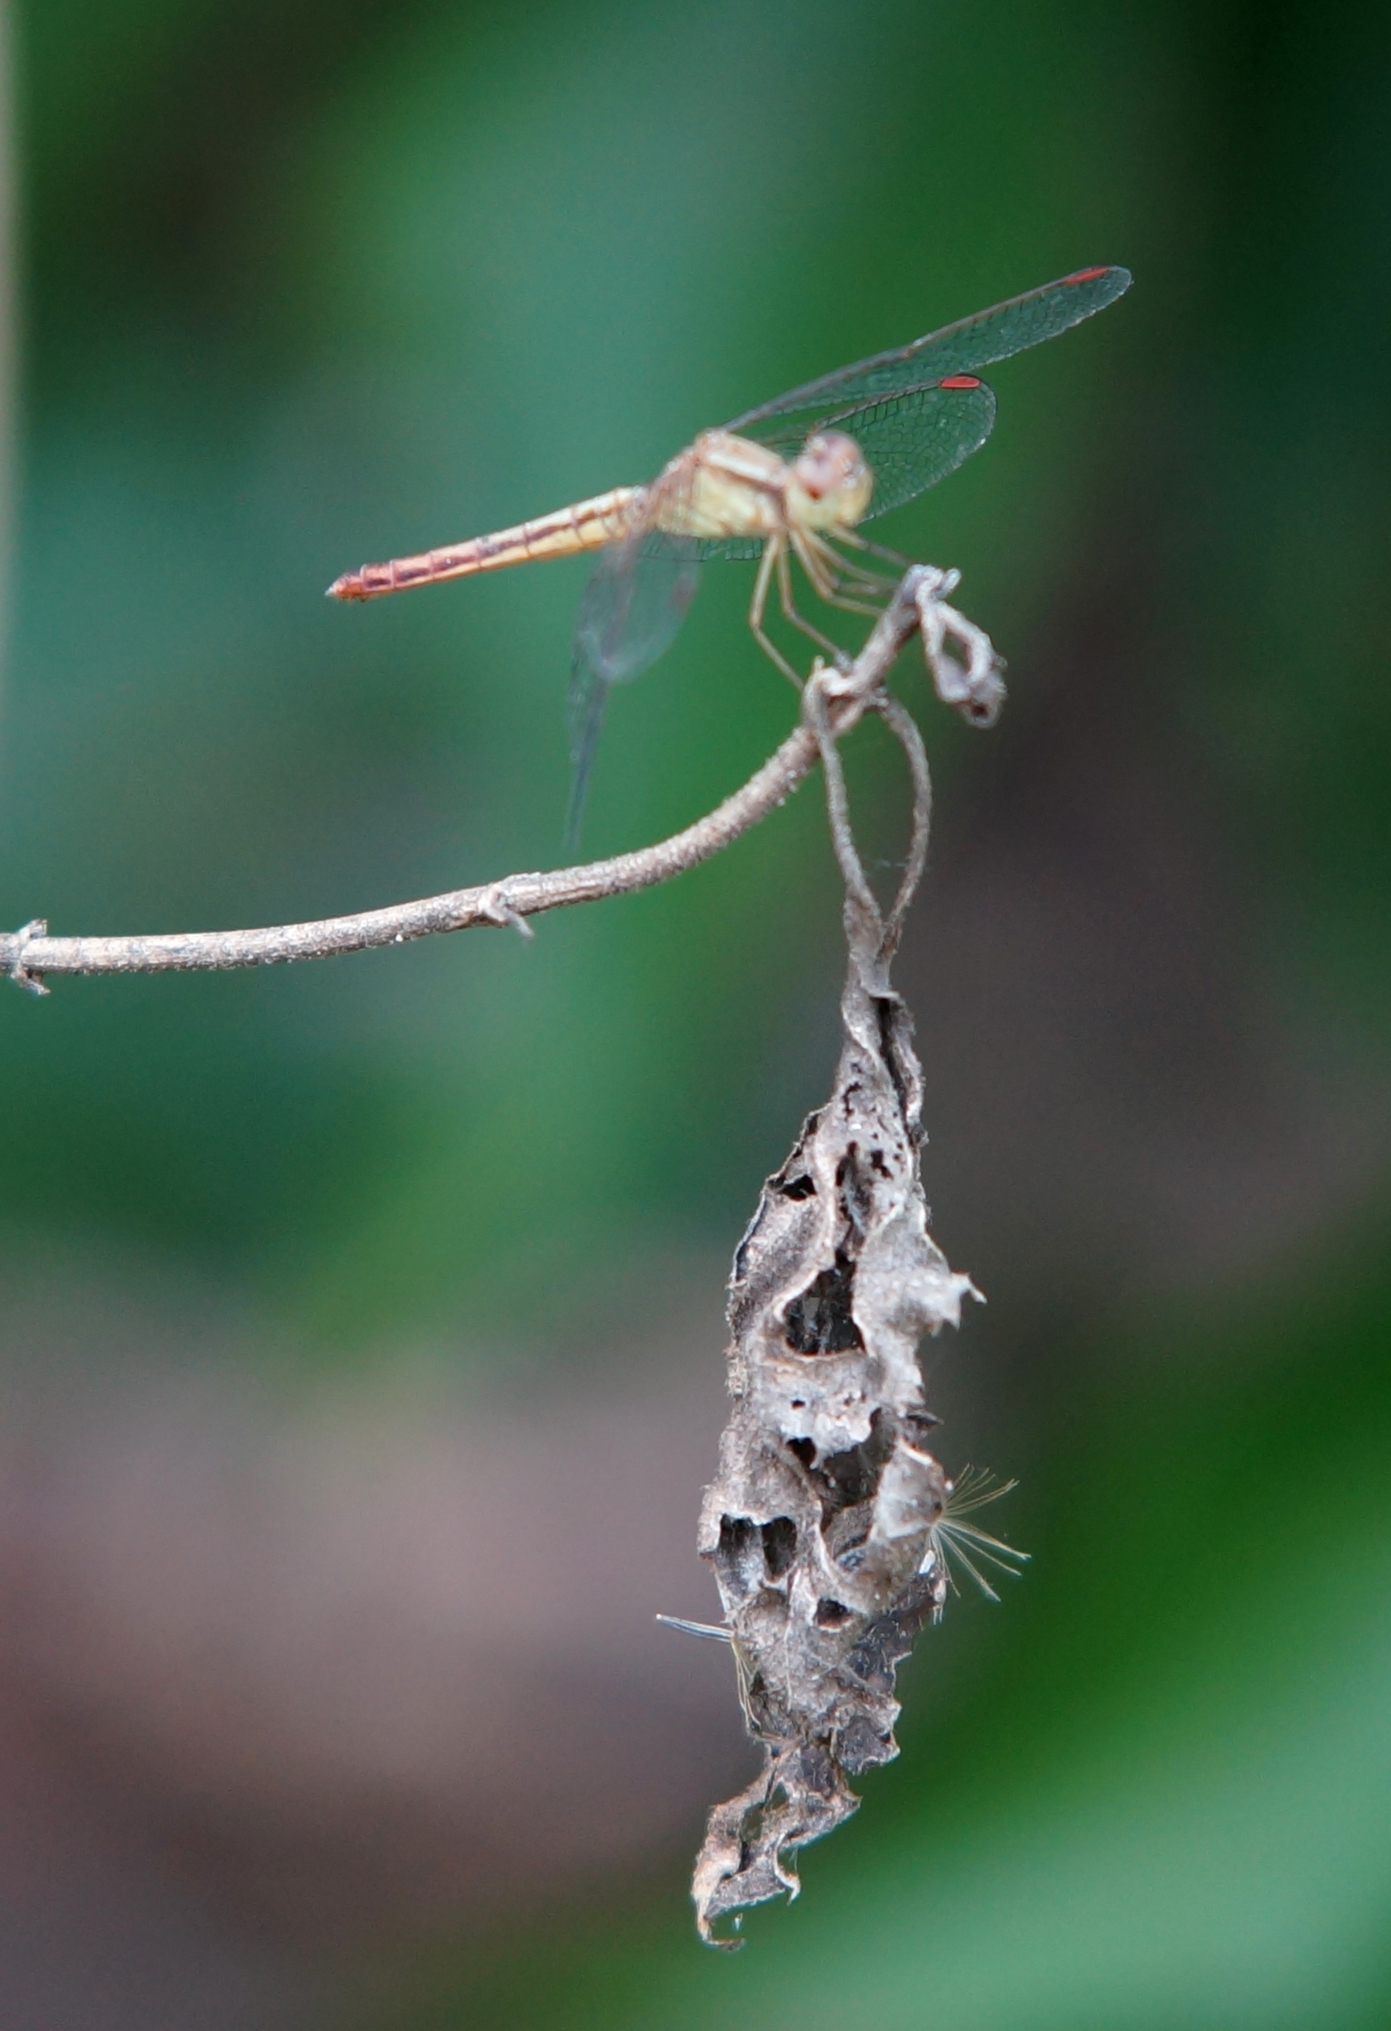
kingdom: Animalia
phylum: Arthropoda
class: Insecta
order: Odonata
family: Libellulidae
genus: Neurothemis
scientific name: Neurothemis intermedia
